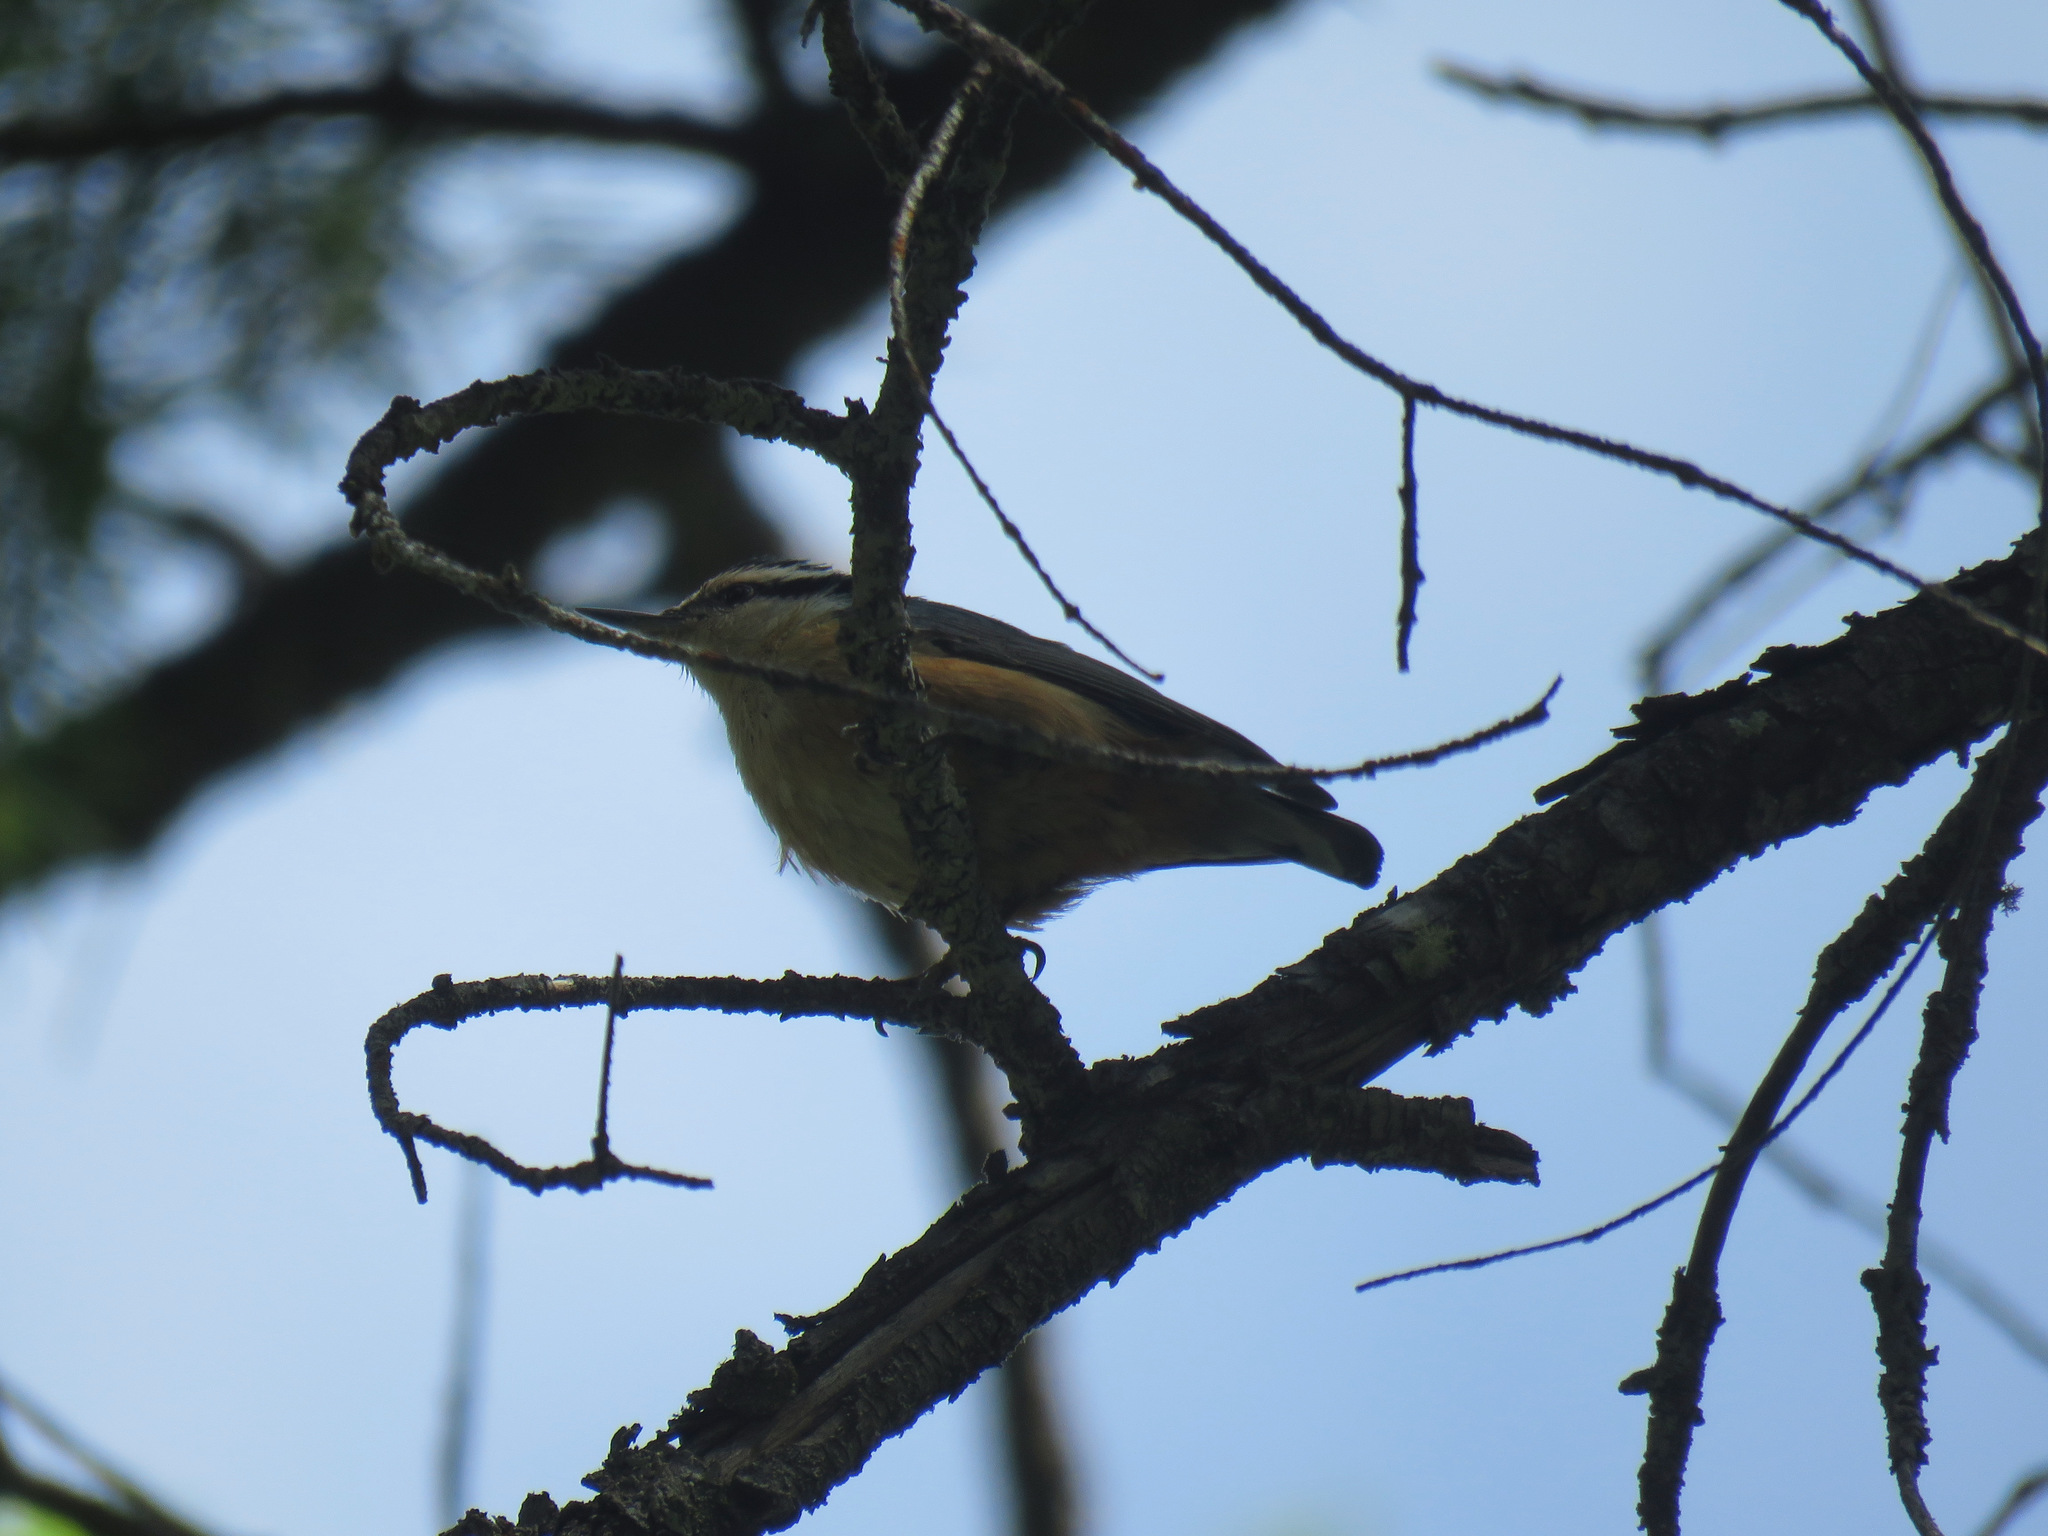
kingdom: Animalia
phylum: Chordata
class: Aves
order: Passeriformes
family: Sittidae
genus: Sitta
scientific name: Sitta canadensis
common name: Red-breasted nuthatch
